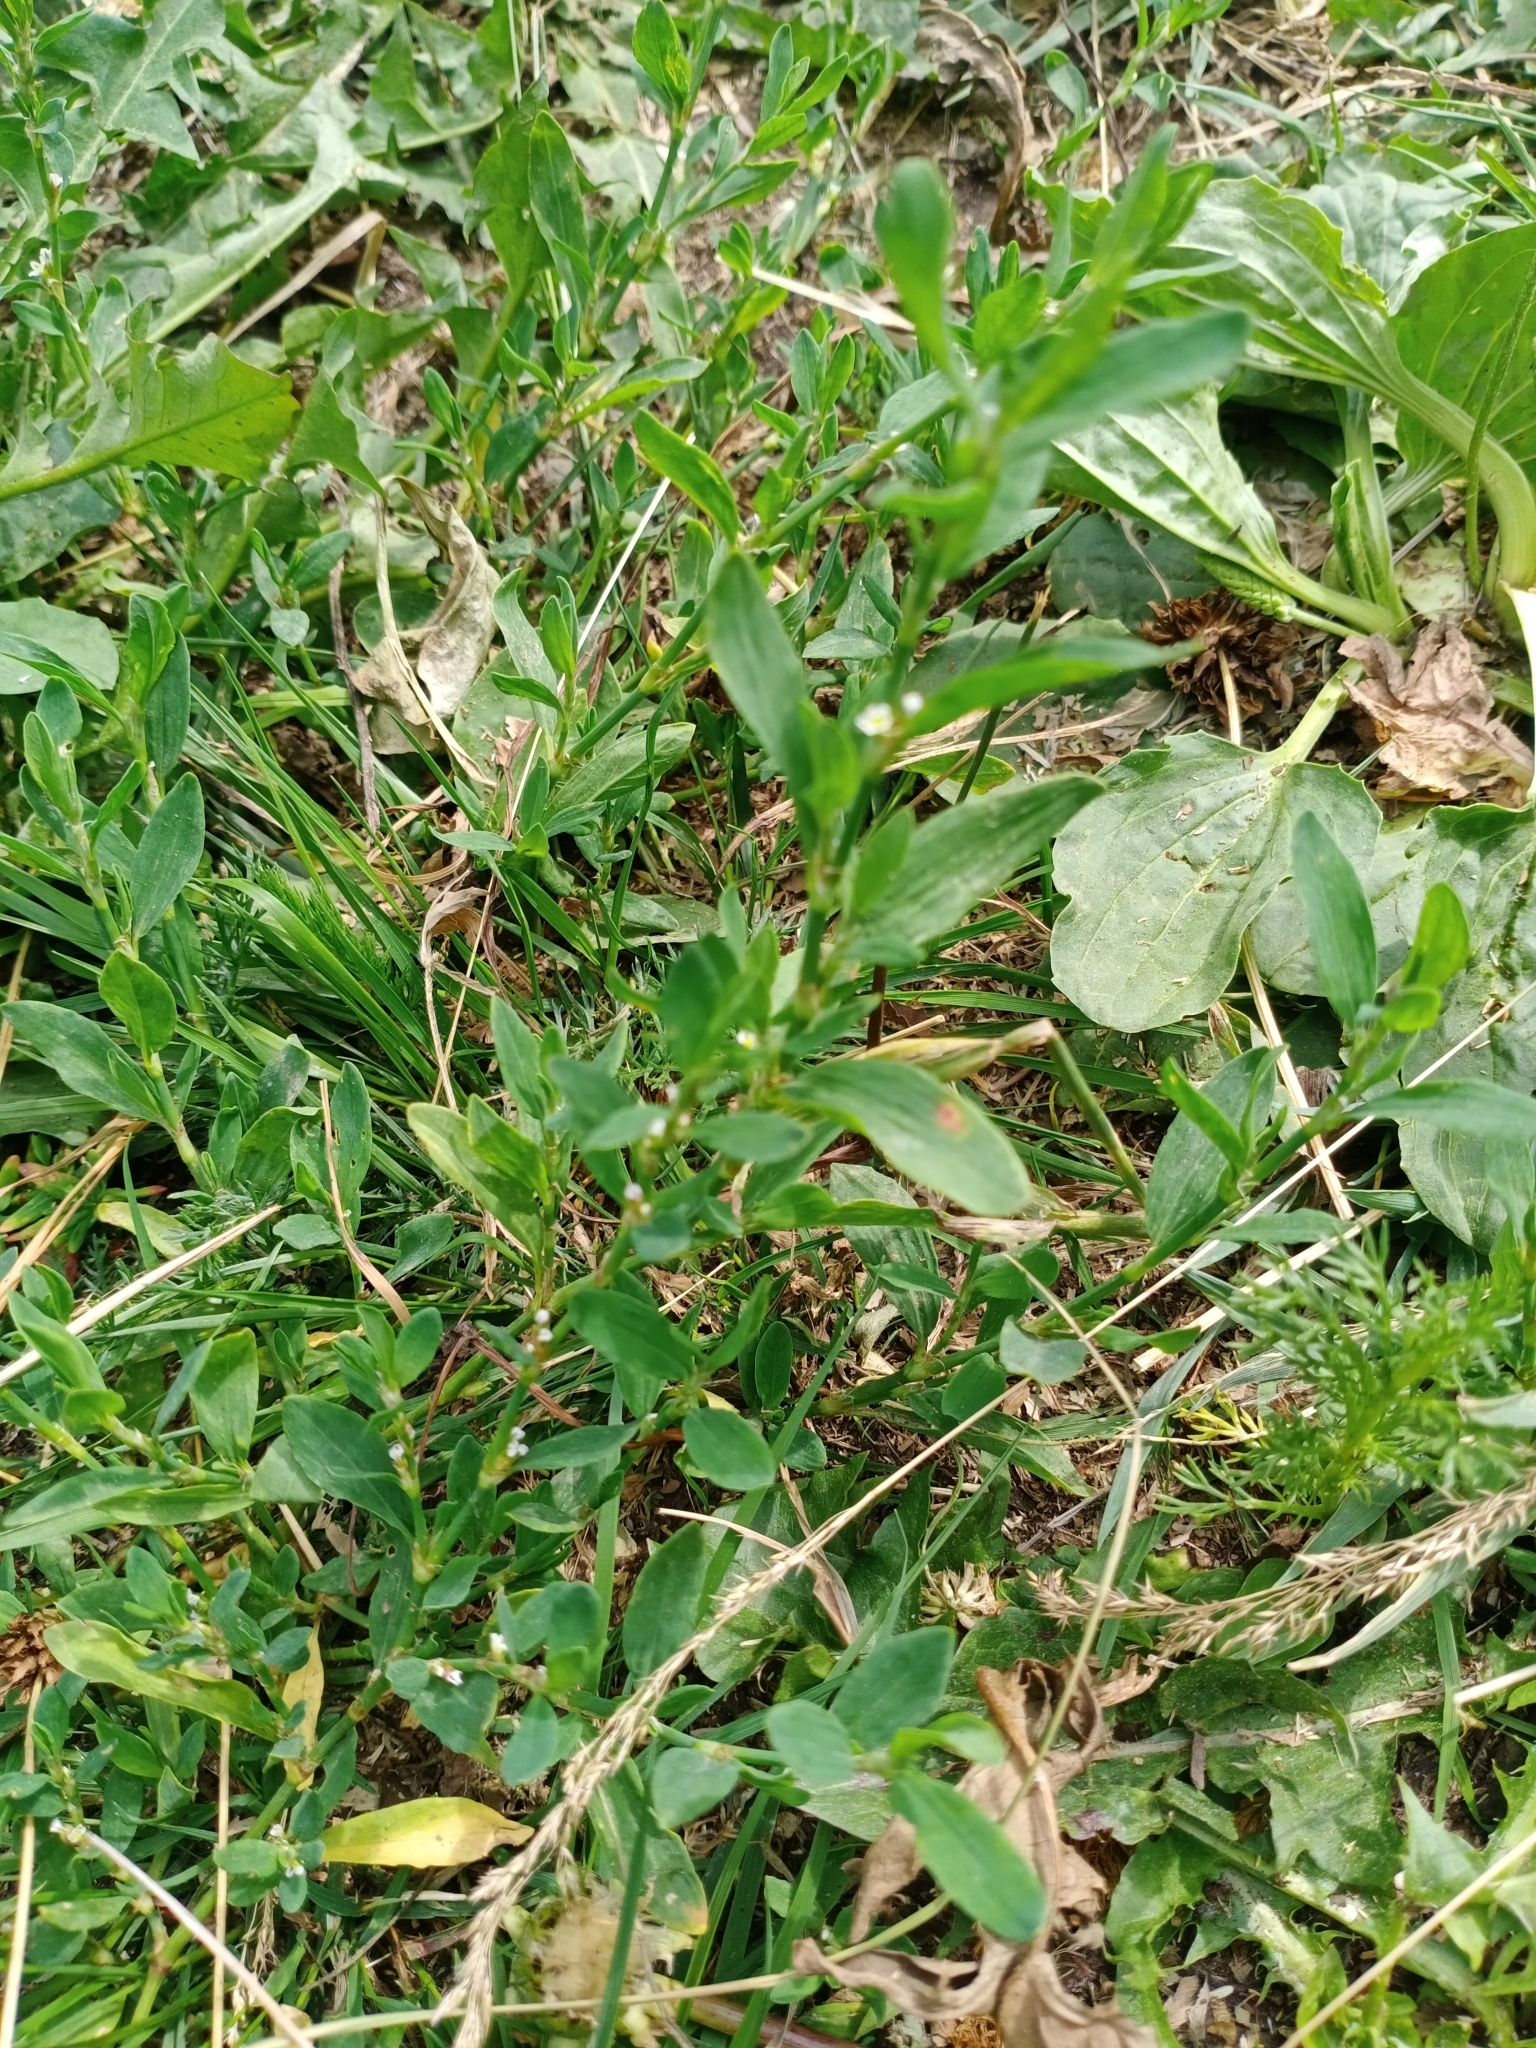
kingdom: Plantae
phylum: Tracheophyta
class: Magnoliopsida
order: Caryophyllales
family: Polygonaceae
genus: Polygonum
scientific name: Polygonum
